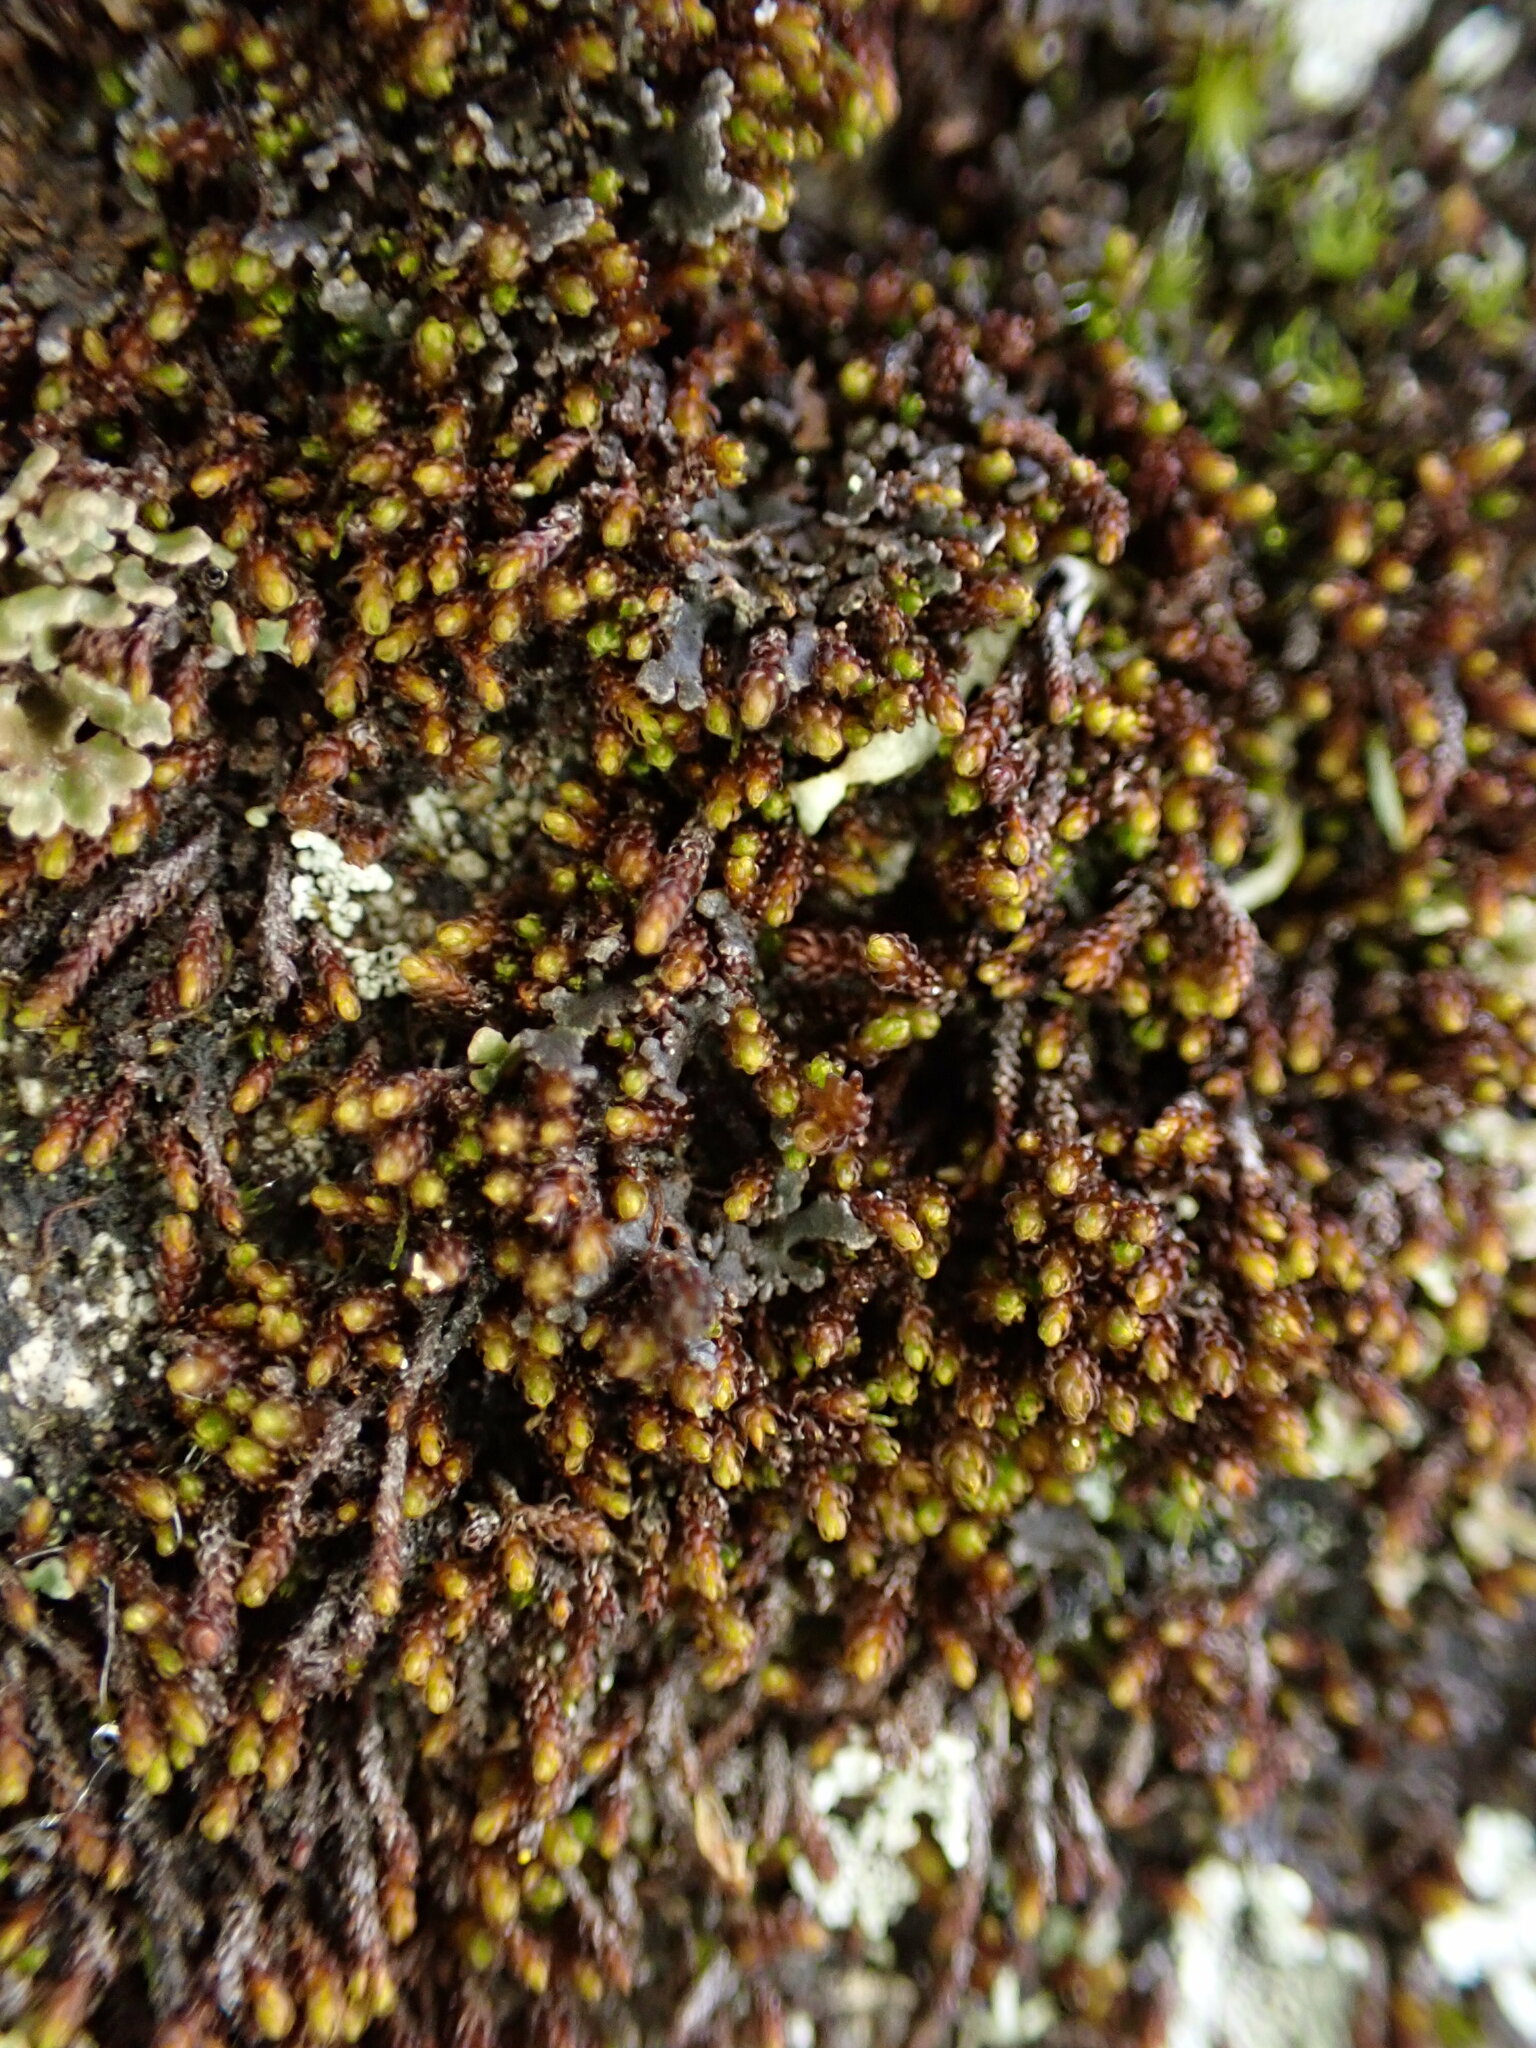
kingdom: Plantae
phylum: Bryophyta
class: Andreaeopsida
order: Andreaeales
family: Andreaeaceae
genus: Andreaea
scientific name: Andreaea rupestris
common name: Black rock moss
